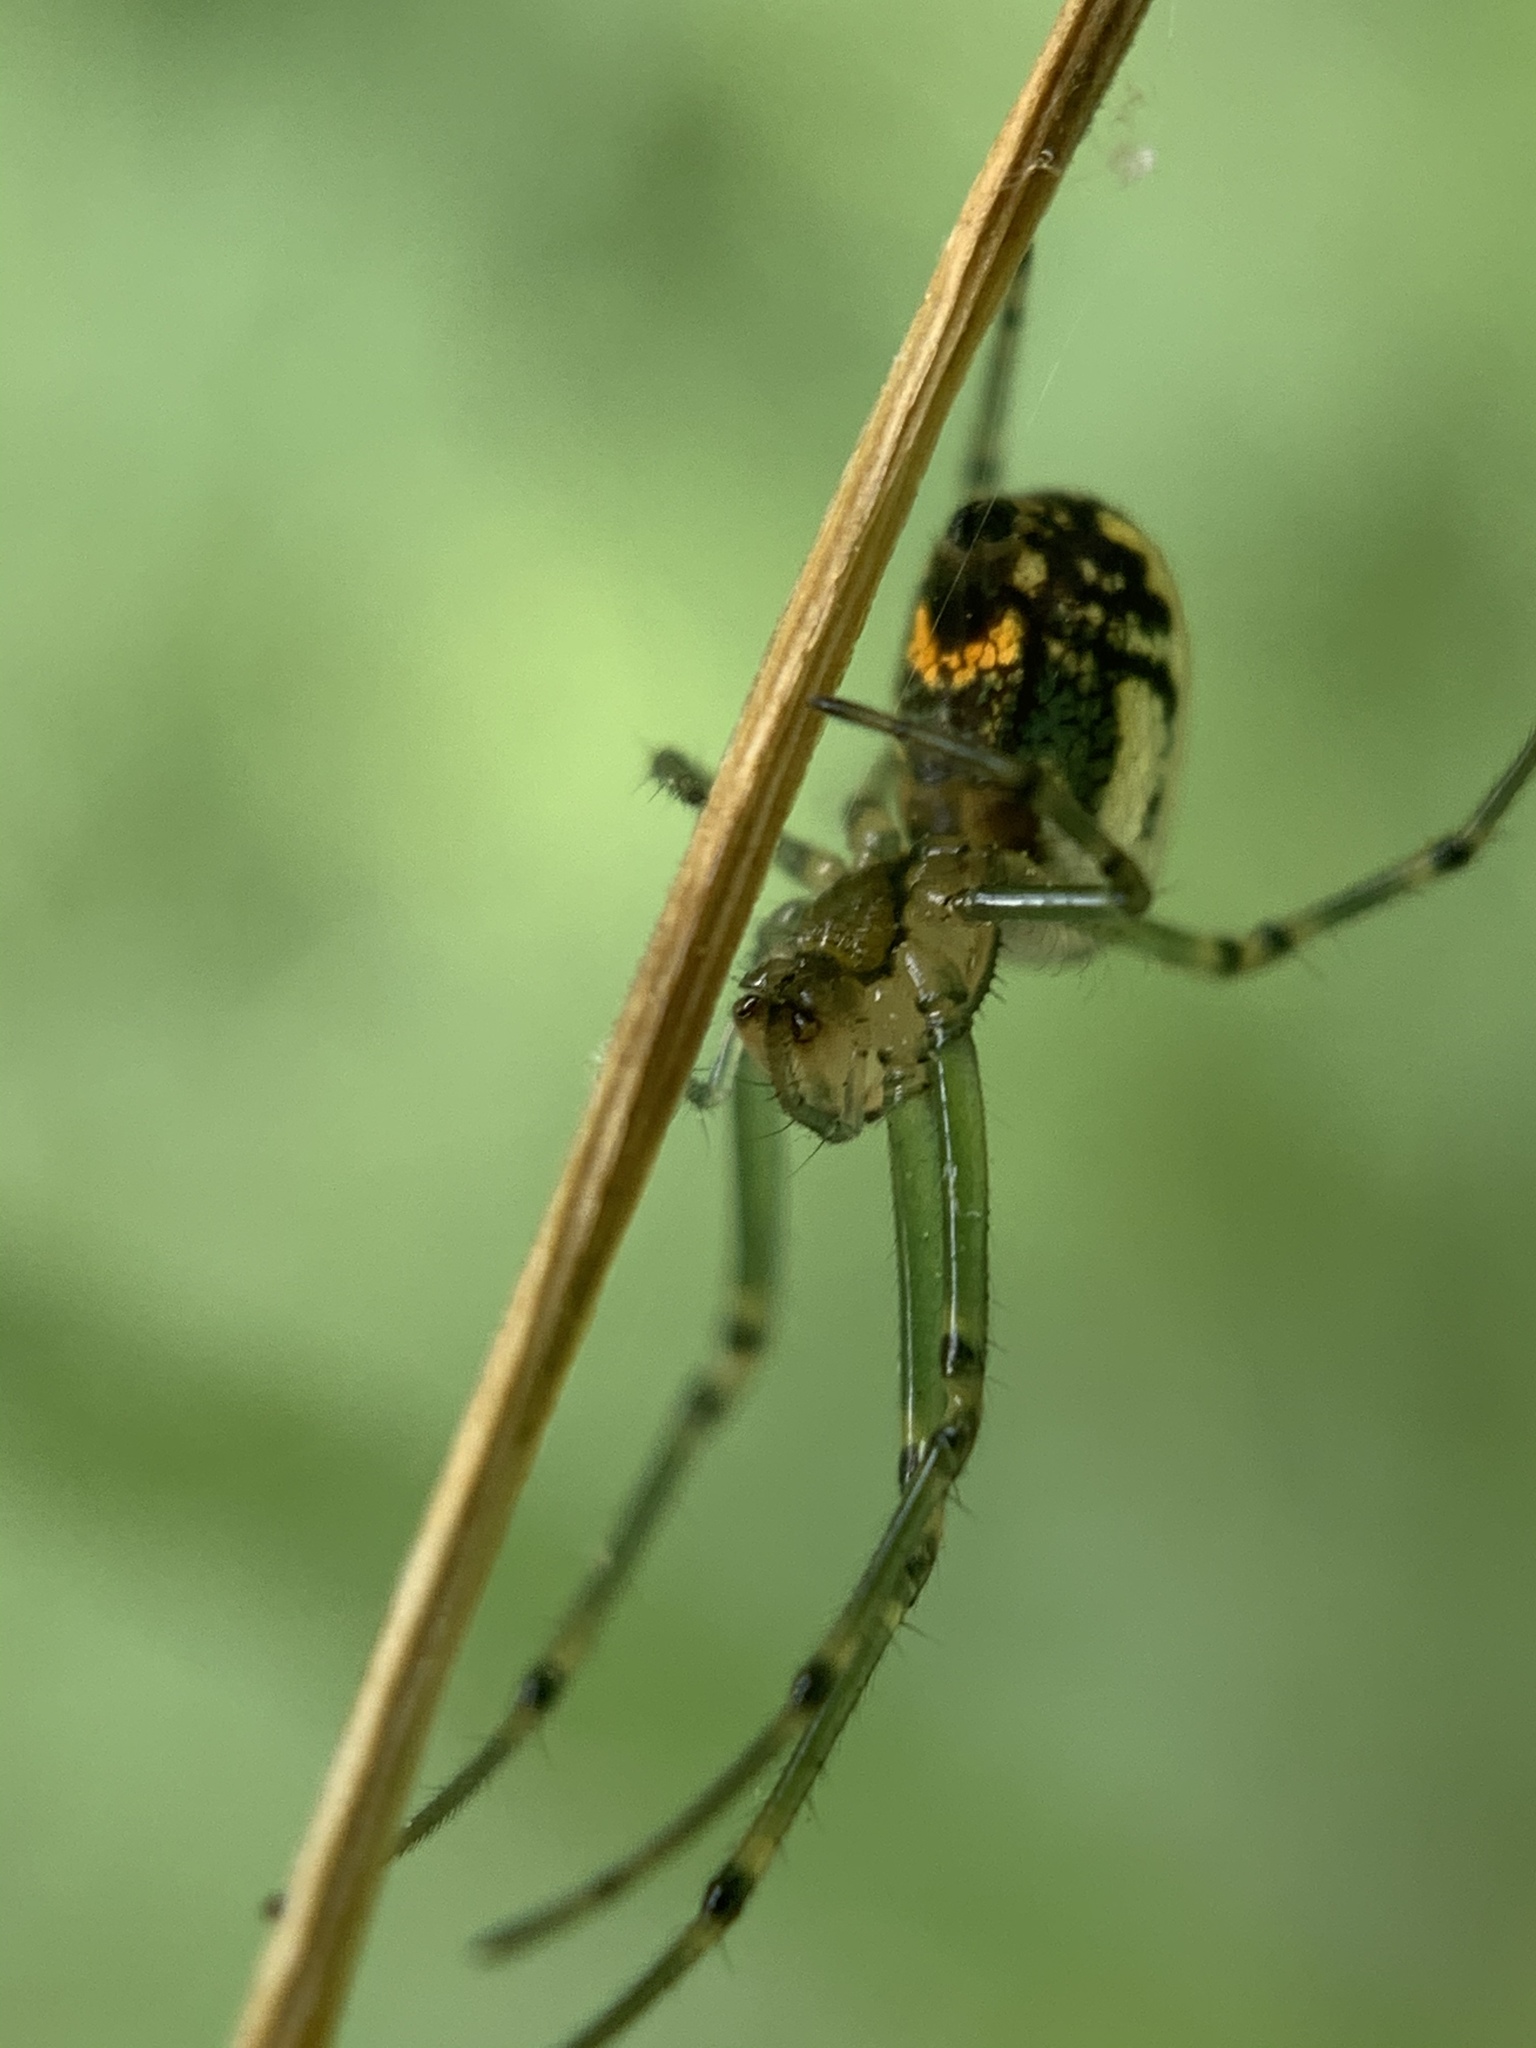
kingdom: Animalia
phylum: Arthropoda
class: Arachnida
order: Araneae
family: Tetragnathidae
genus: Leucauge
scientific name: Leucauge venusta
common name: Longjawed orb weavers
